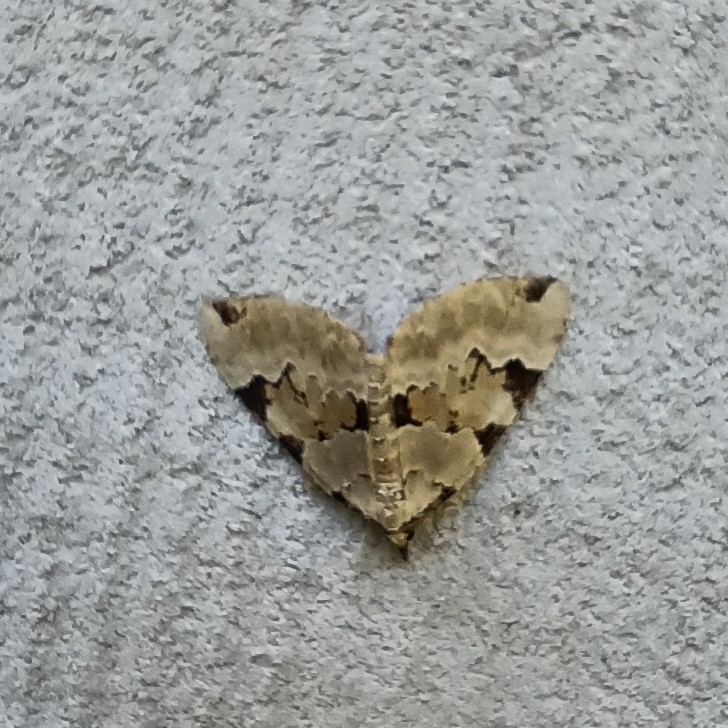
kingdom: Animalia
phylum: Arthropoda
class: Insecta
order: Lepidoptera
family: Geometridae
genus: Colostygia
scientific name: Colostygia pectinataria
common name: Green carpet
